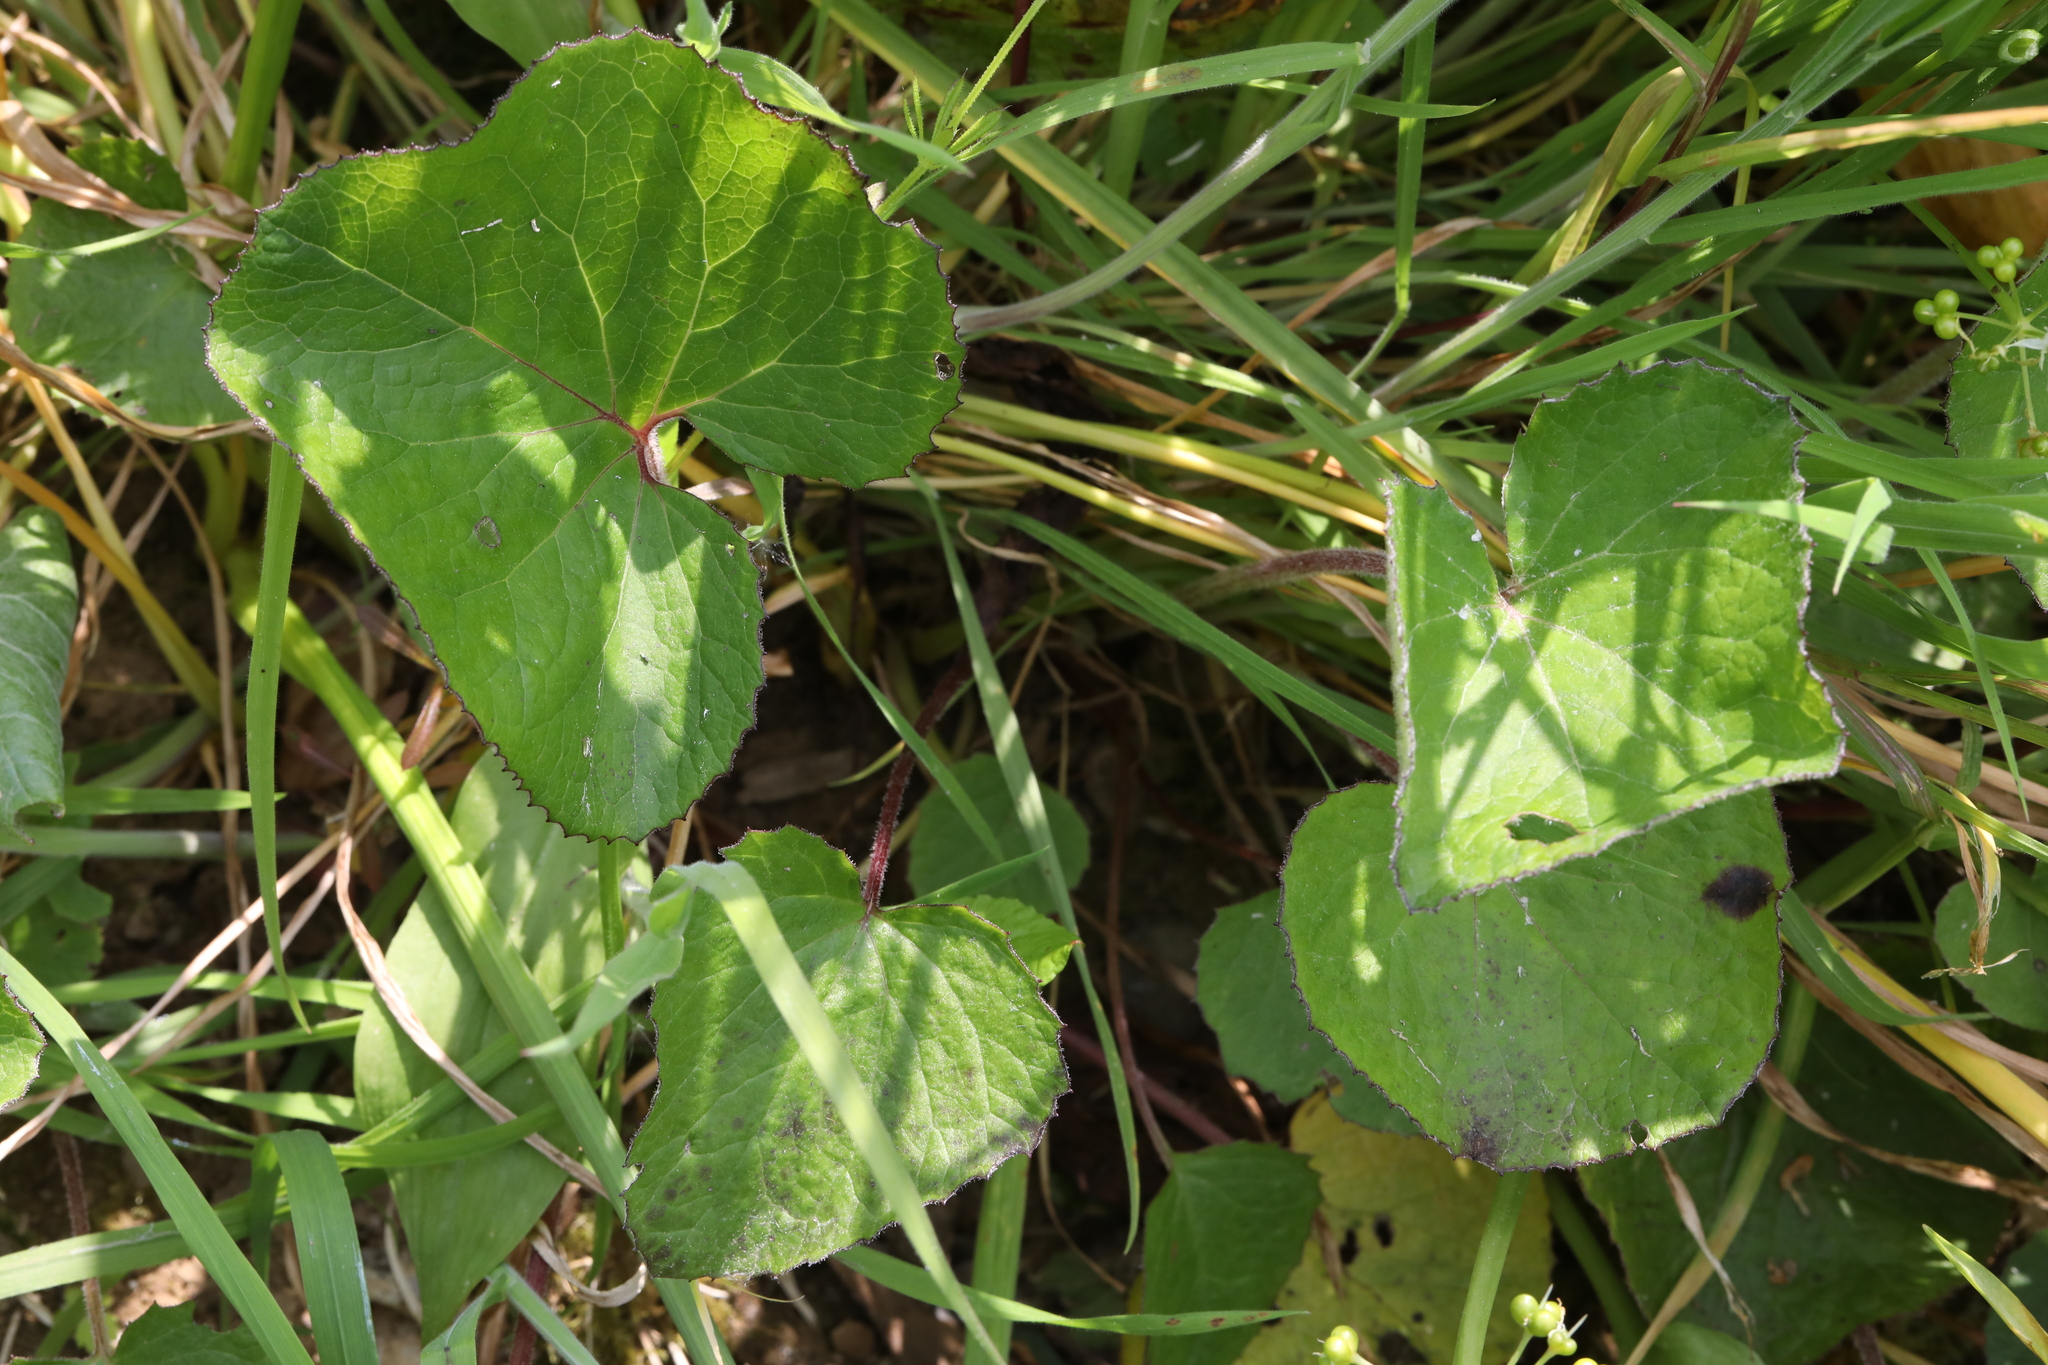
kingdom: Plantae
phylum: Tracheophyta
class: Magnoliopsida
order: Asterales
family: Asteraceae
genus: Petasites
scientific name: Petasites pyrenaicus
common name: Winter heliotrope
